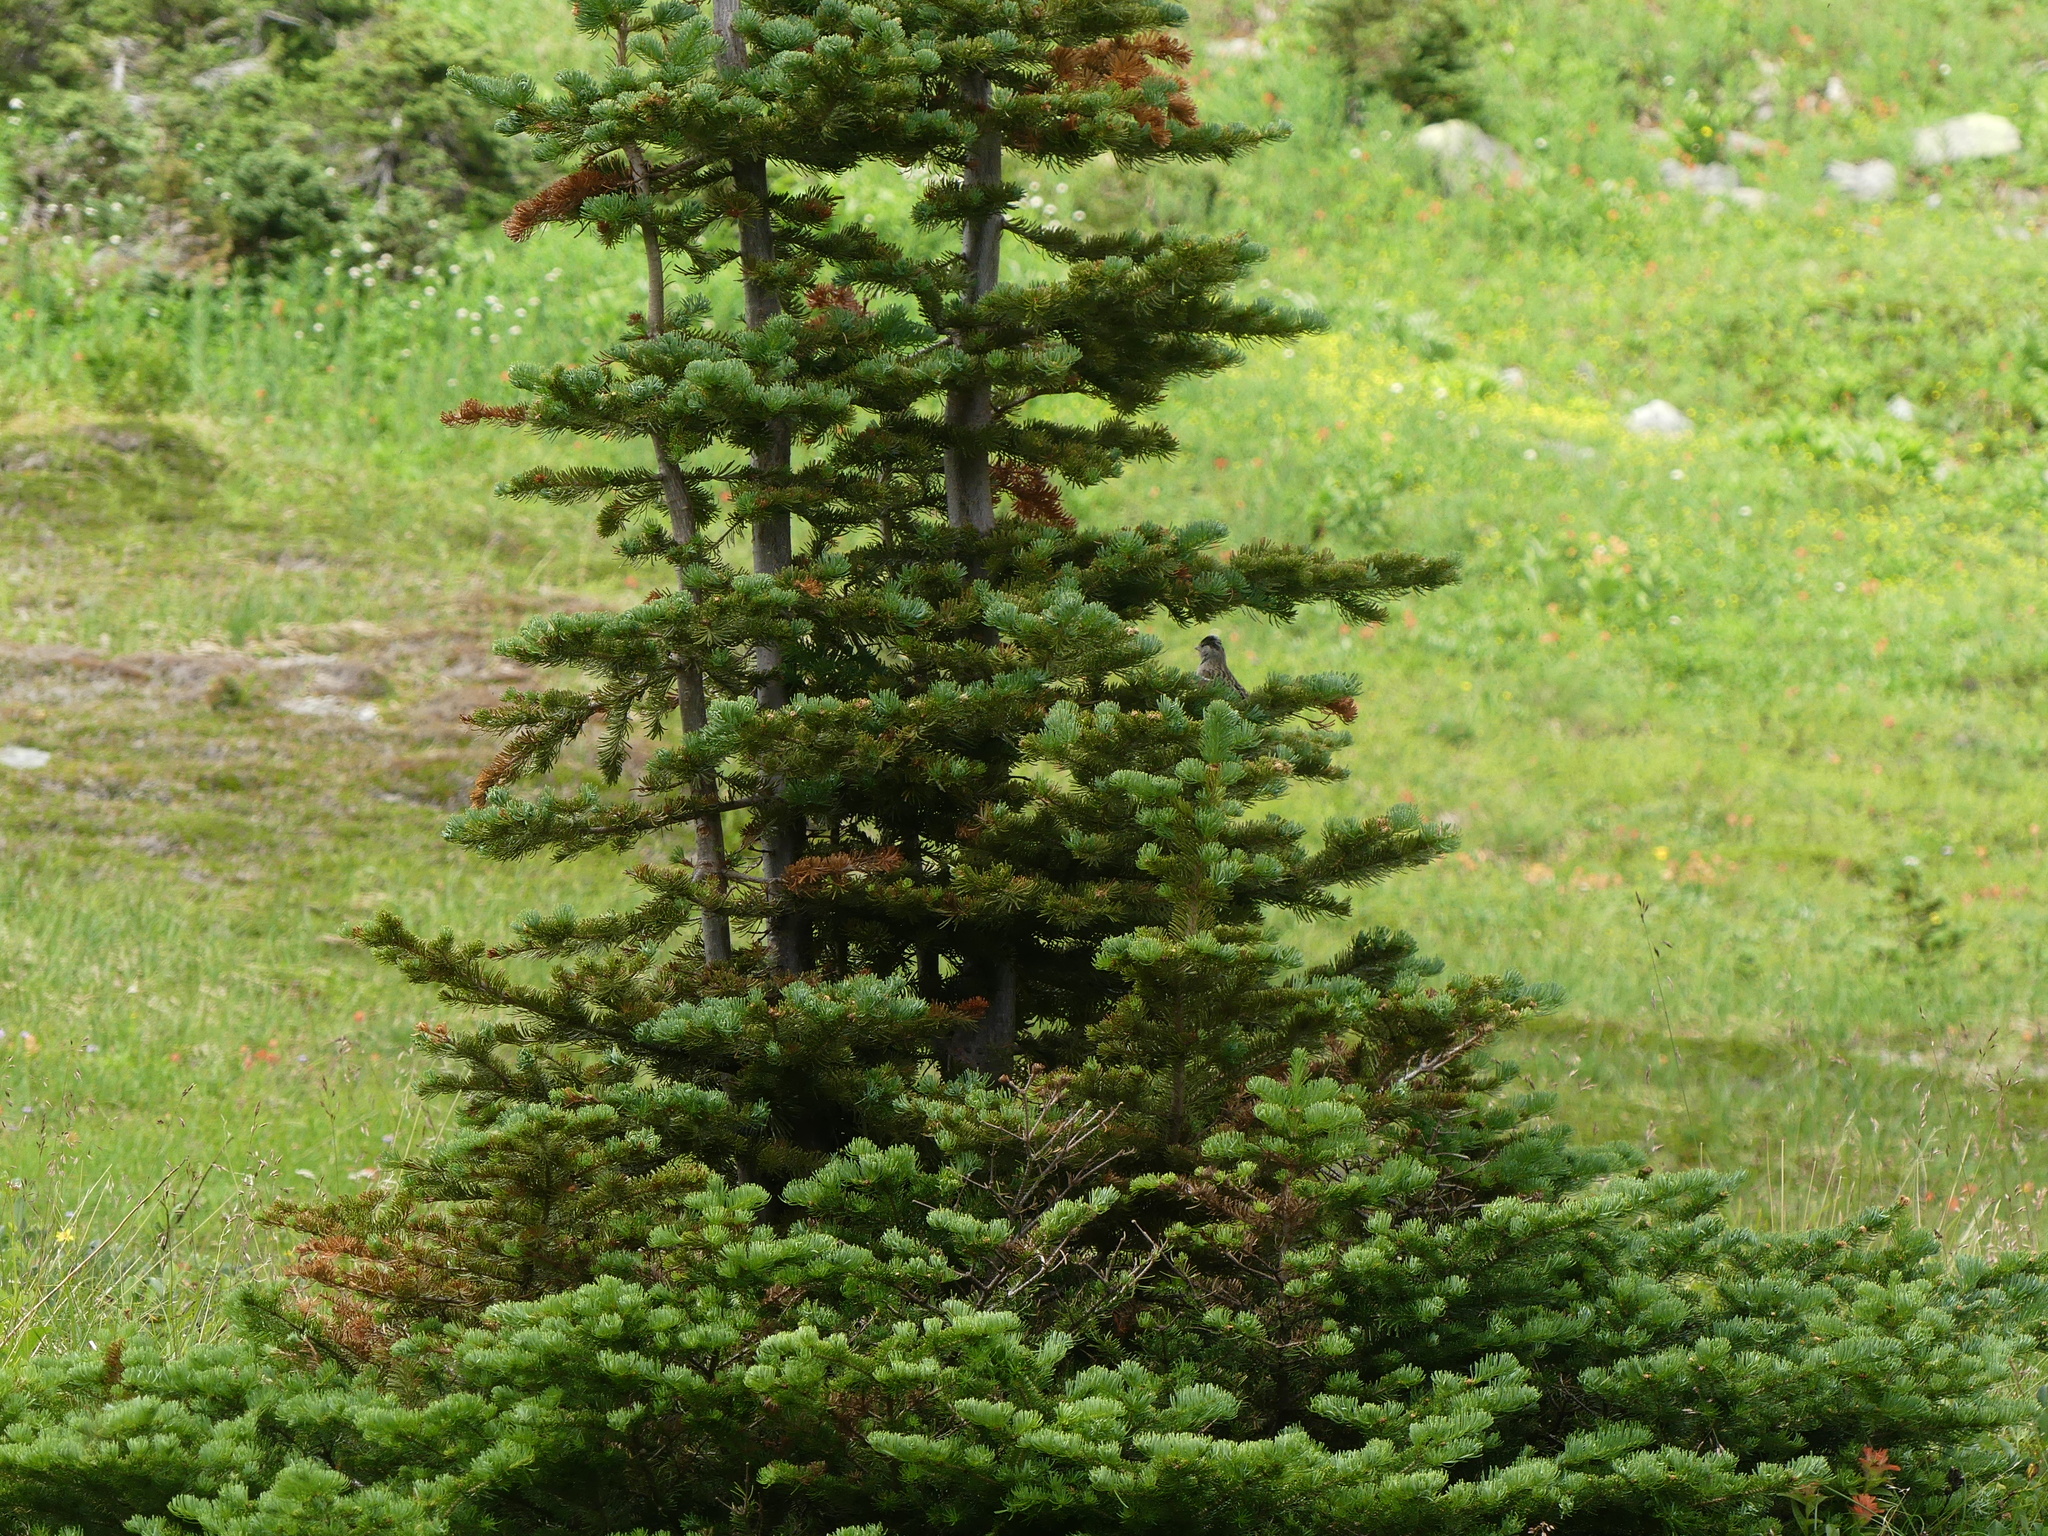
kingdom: Animalia
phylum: Chordata
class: Aves
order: Passeriformes
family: Passerellidae
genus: Zonotrichia
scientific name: Zonotrichia atricapilla
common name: Golden-crowned sparrow
